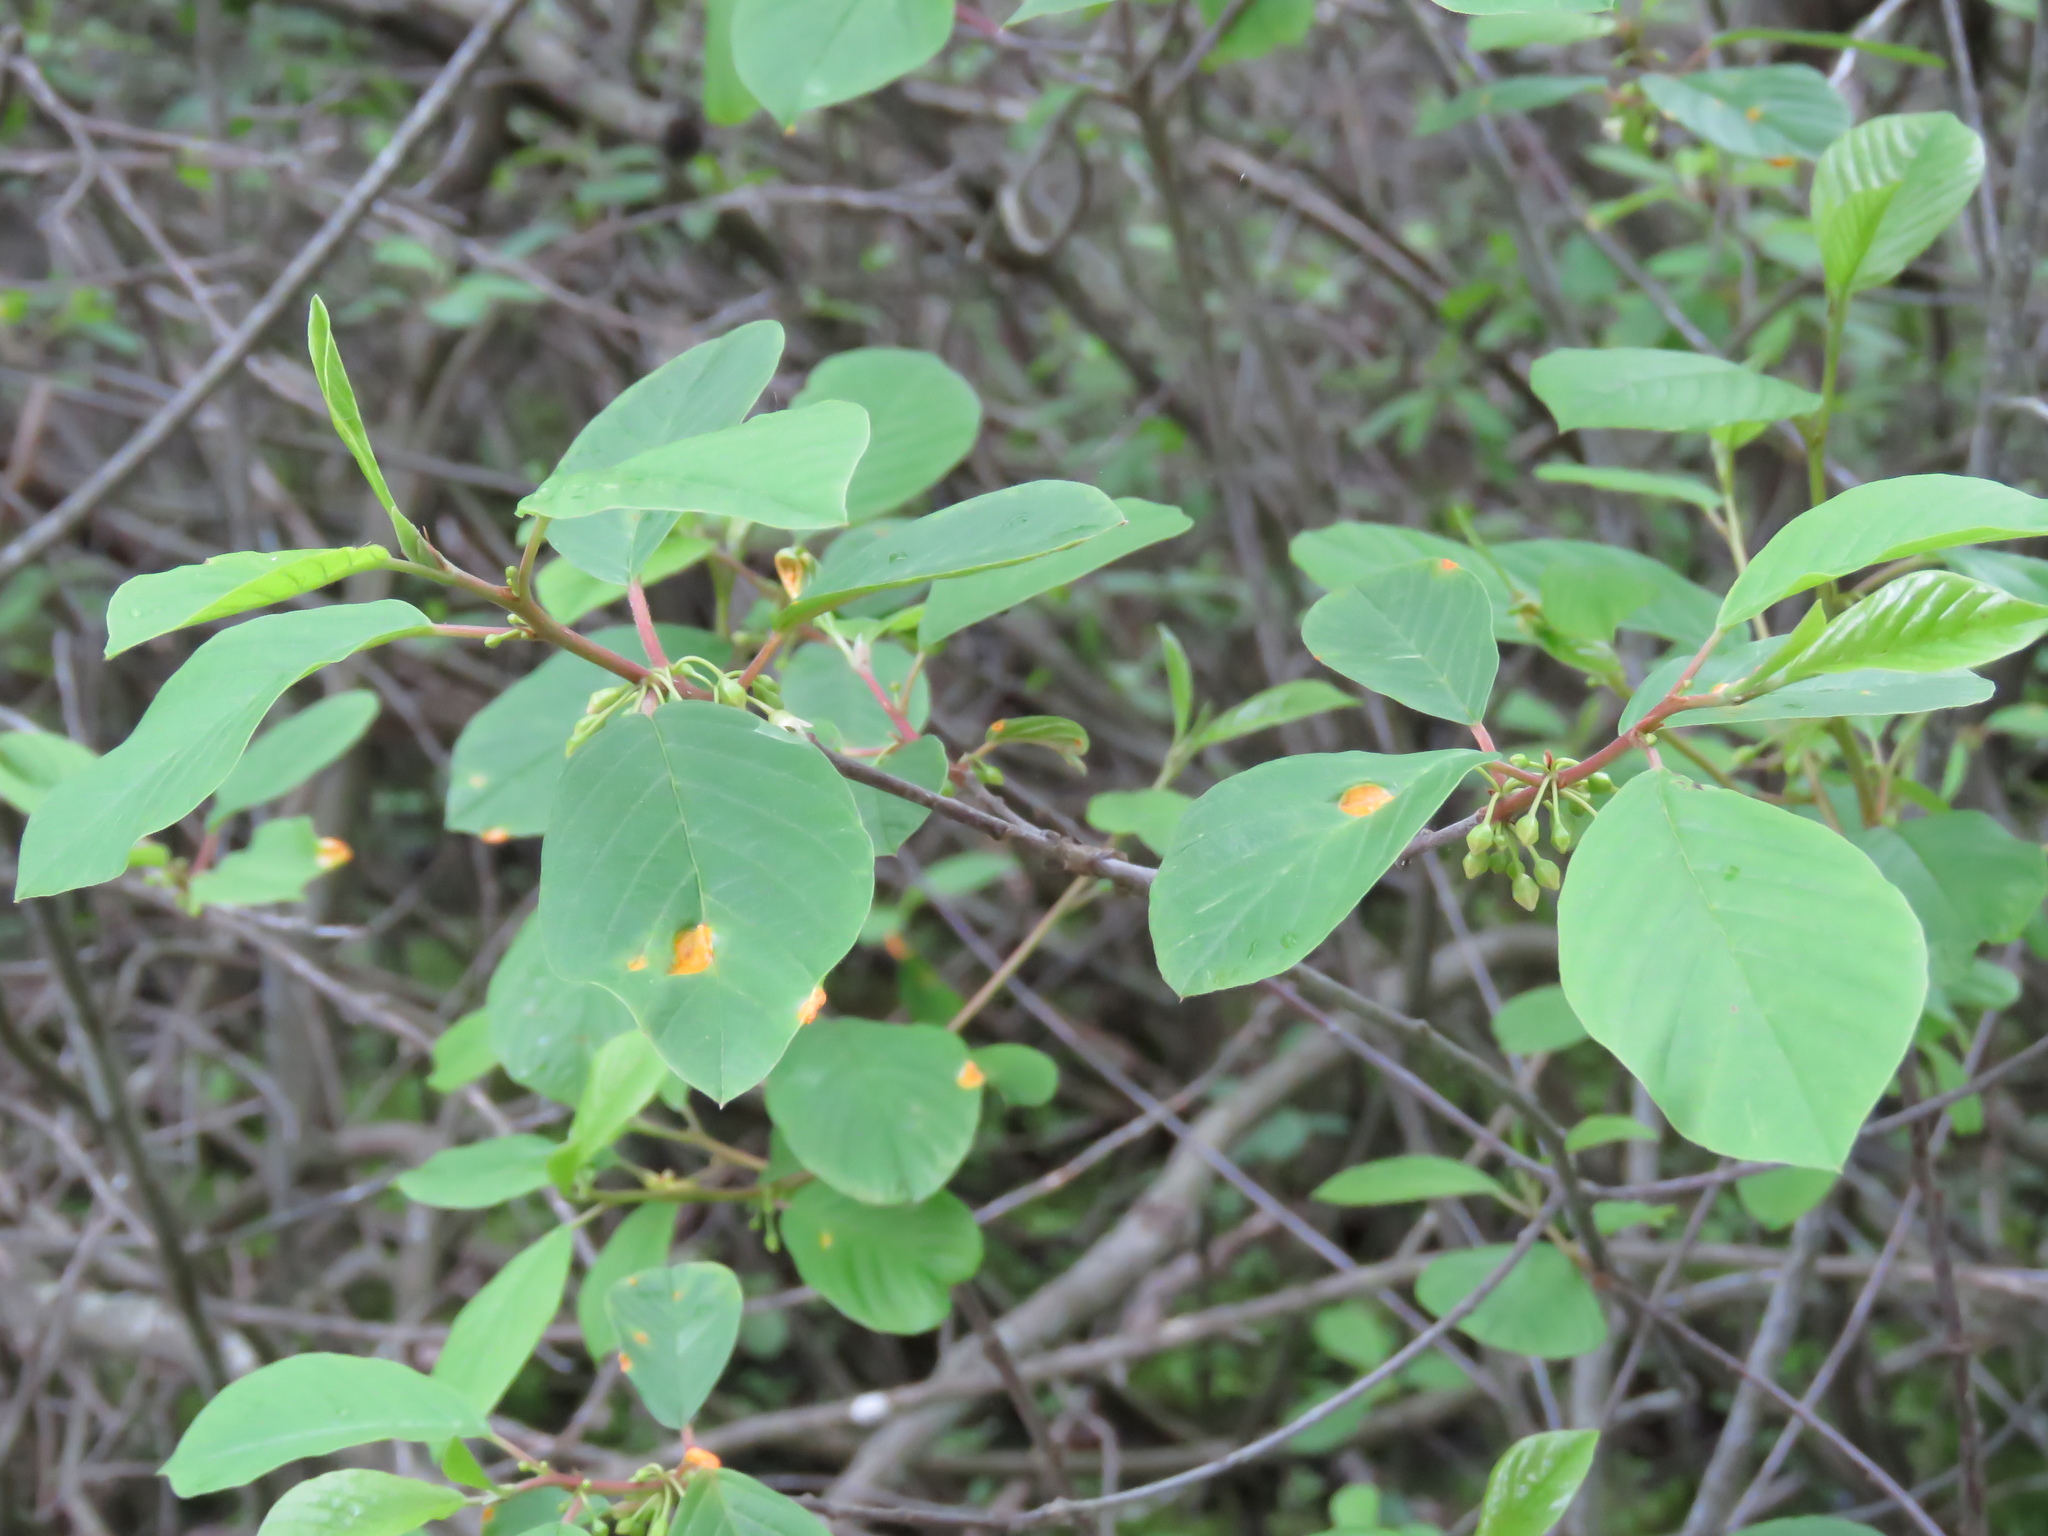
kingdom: Plantae
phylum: Tracheophyta
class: Magnoliopsida
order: Rosales
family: Rhamnaceae
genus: Frangula
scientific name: Frangula alnus
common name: Alder buckthorn
